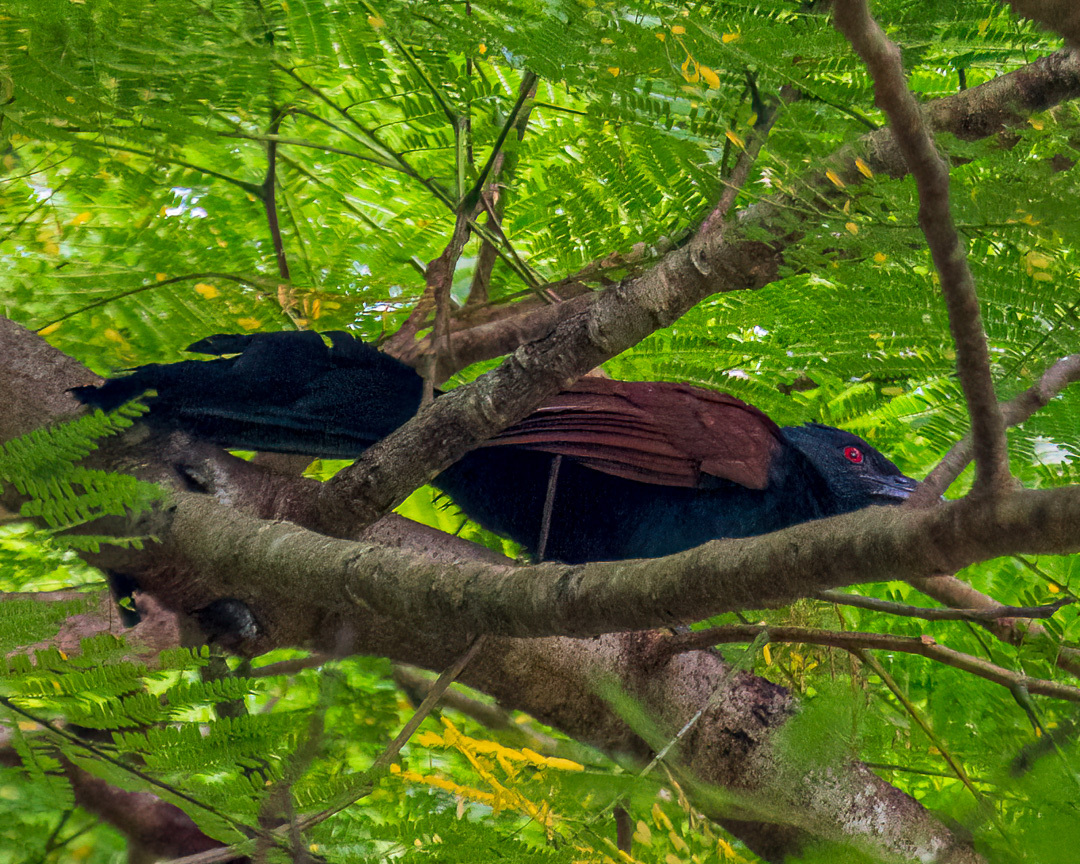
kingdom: Animalia
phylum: Chordata
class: Aves
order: Cuculiformes
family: Cuculidae
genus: Centropus
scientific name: Centropus sinensis
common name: Greater coucal
